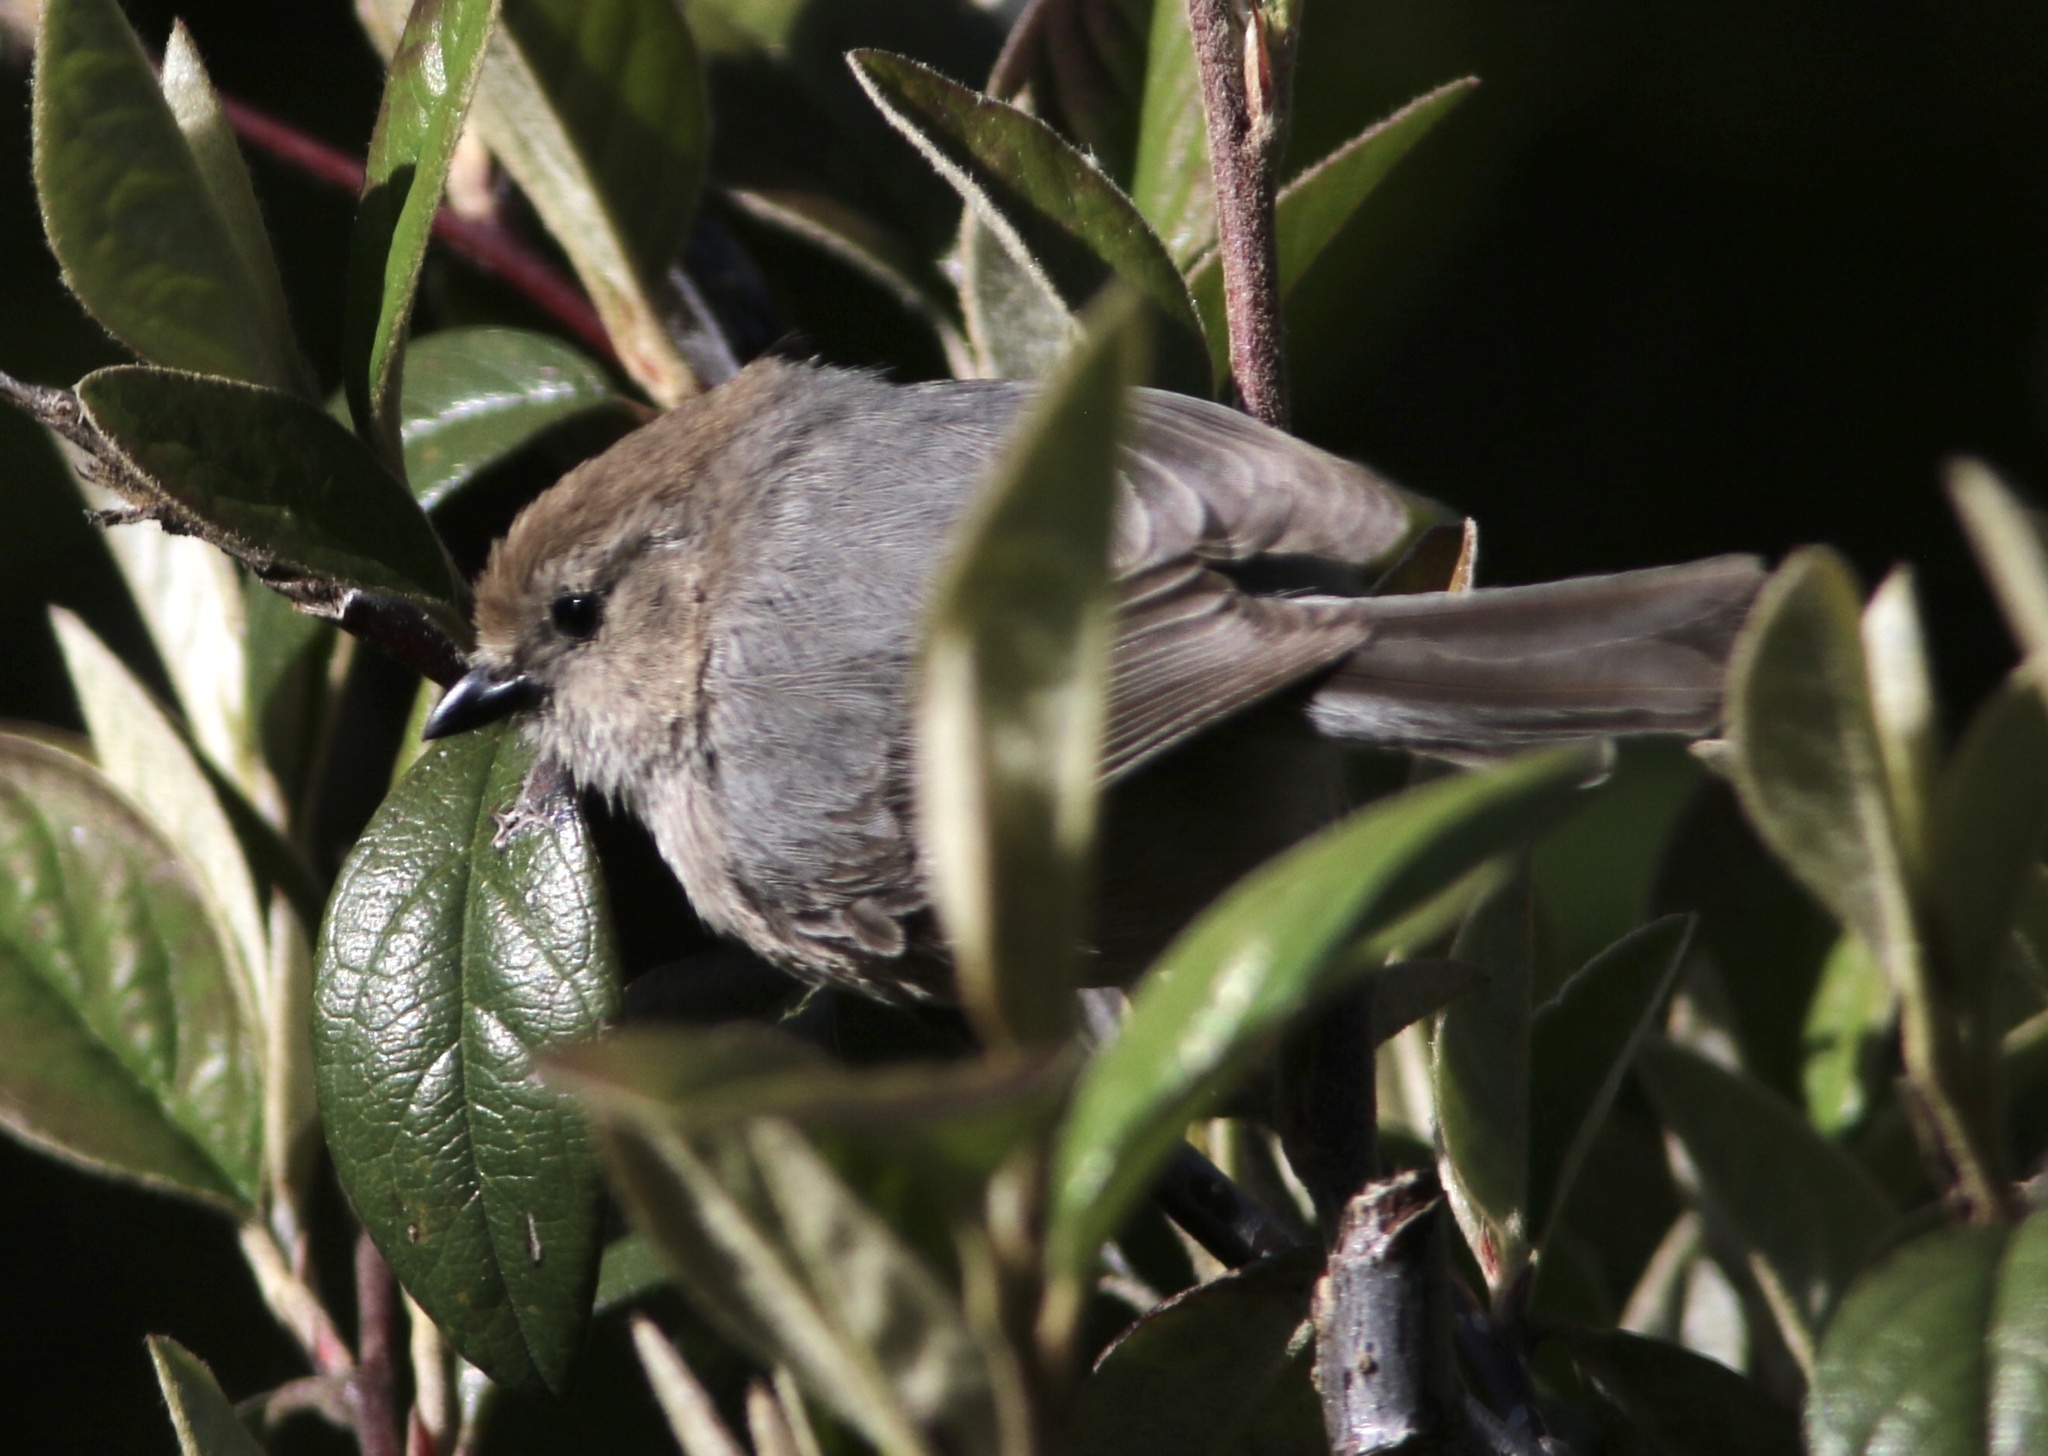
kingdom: Animalia
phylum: Chordata
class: Aves
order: Passeriformes
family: Aegithalidae
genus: Psaltriparus
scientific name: Psaltriparus minimus
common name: American bushtit
